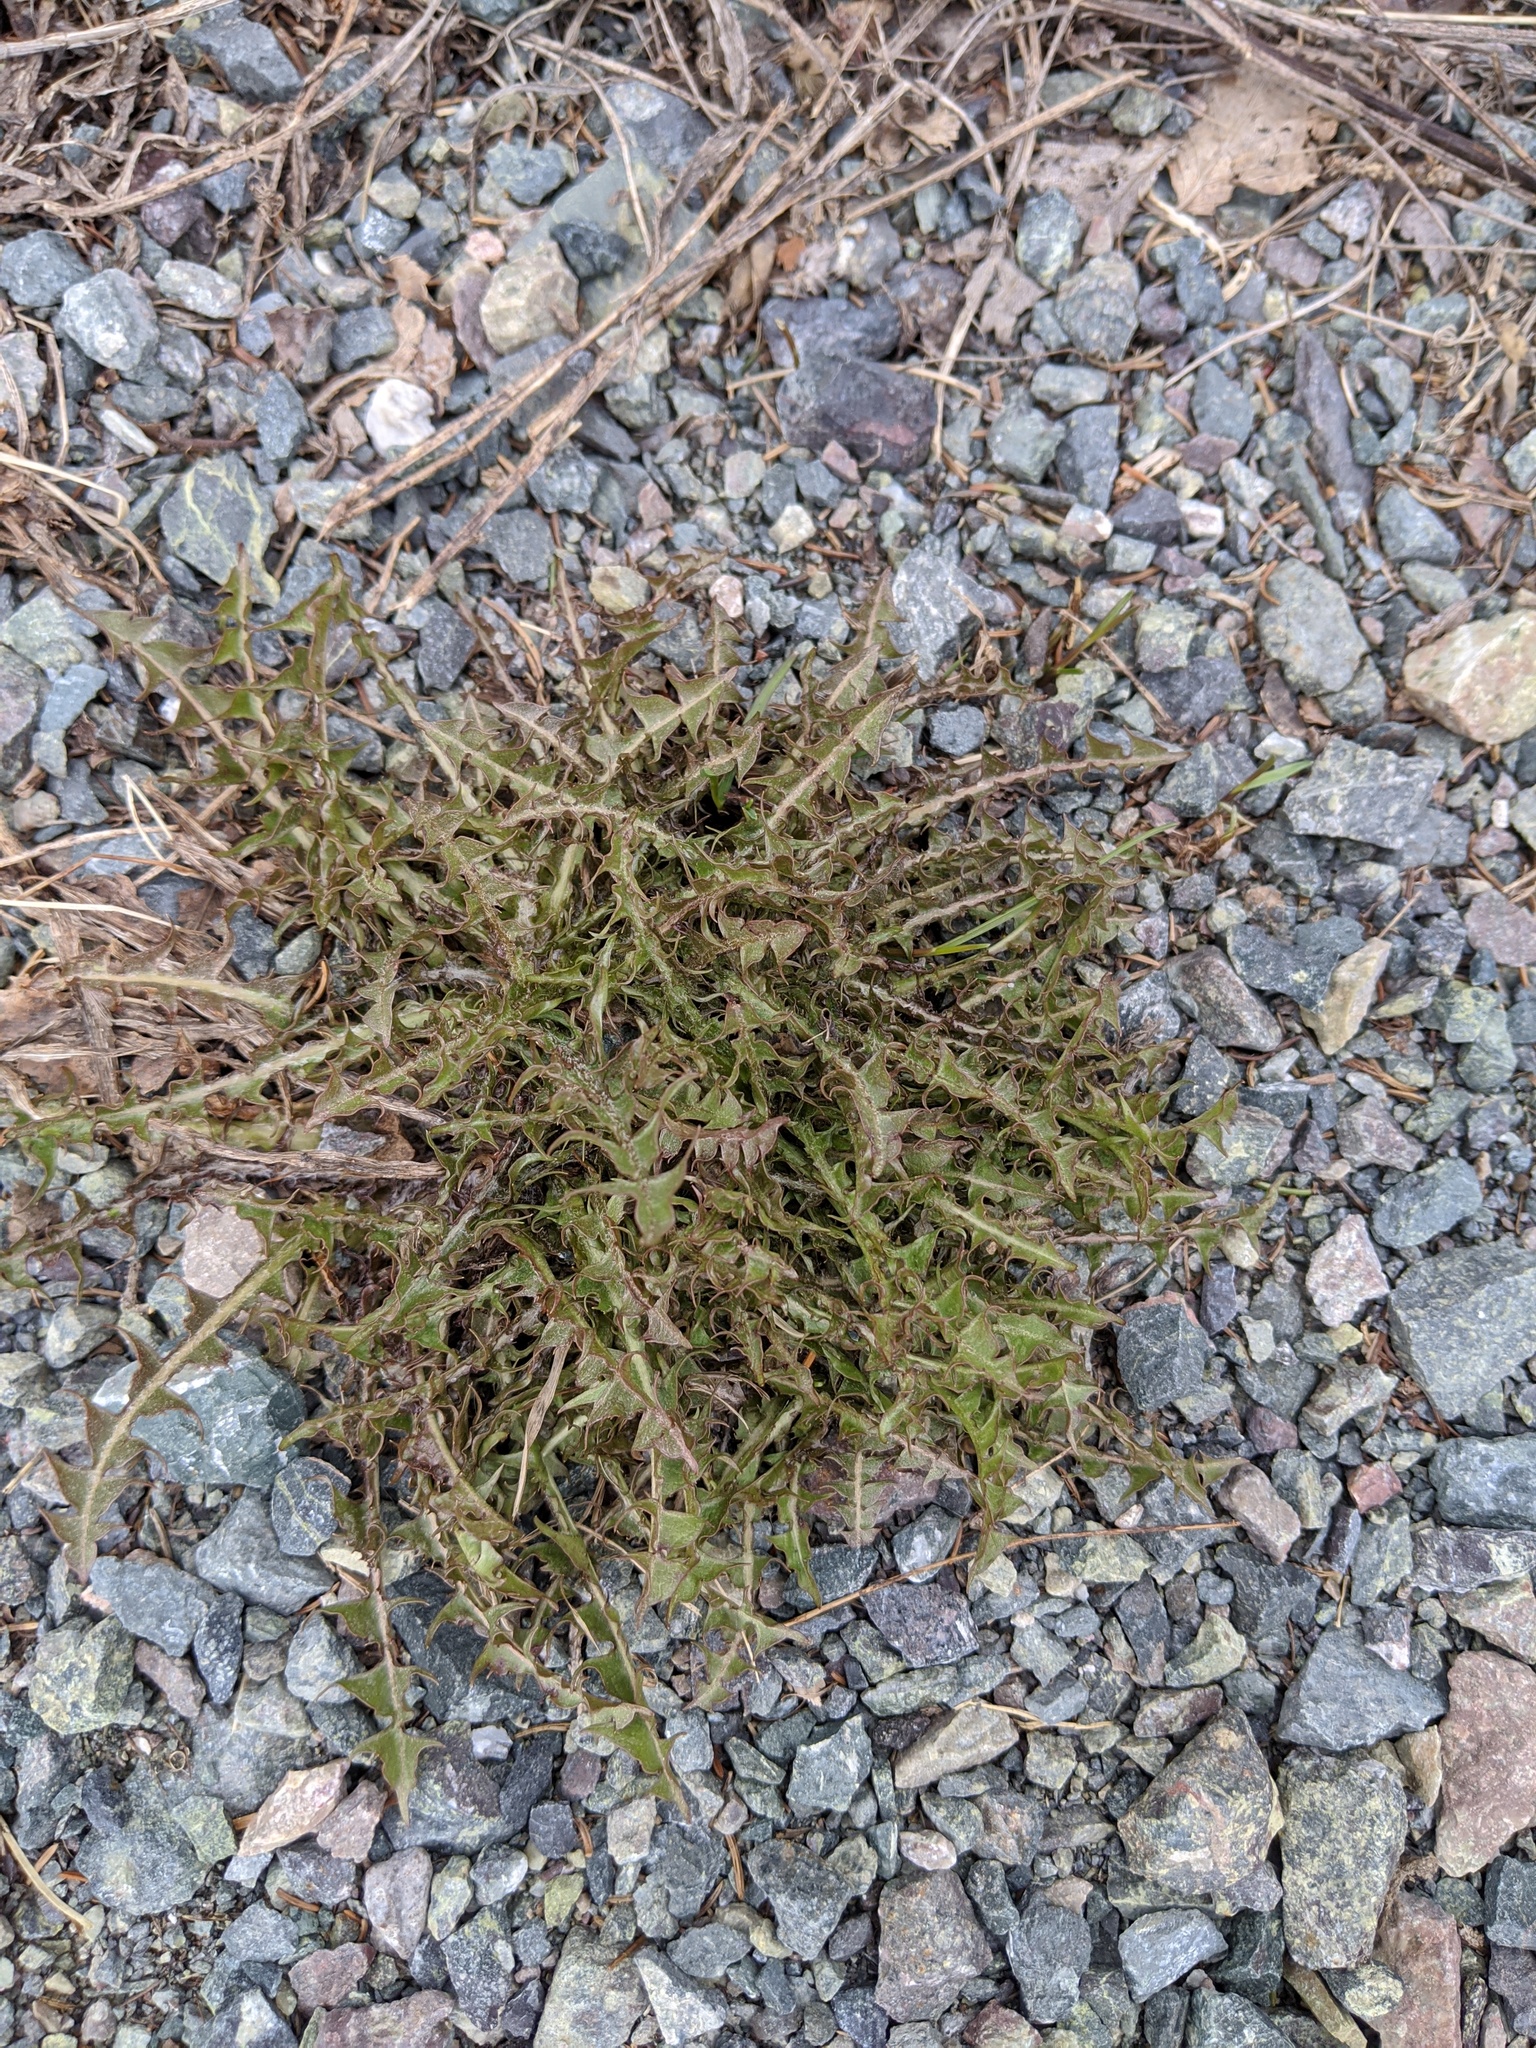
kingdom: Plantae
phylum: Tracheophyta
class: Magnoliopsida
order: Asterales
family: Asteraceae
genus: Taraxacum
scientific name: Taraxacum officinale
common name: Common dandelion
